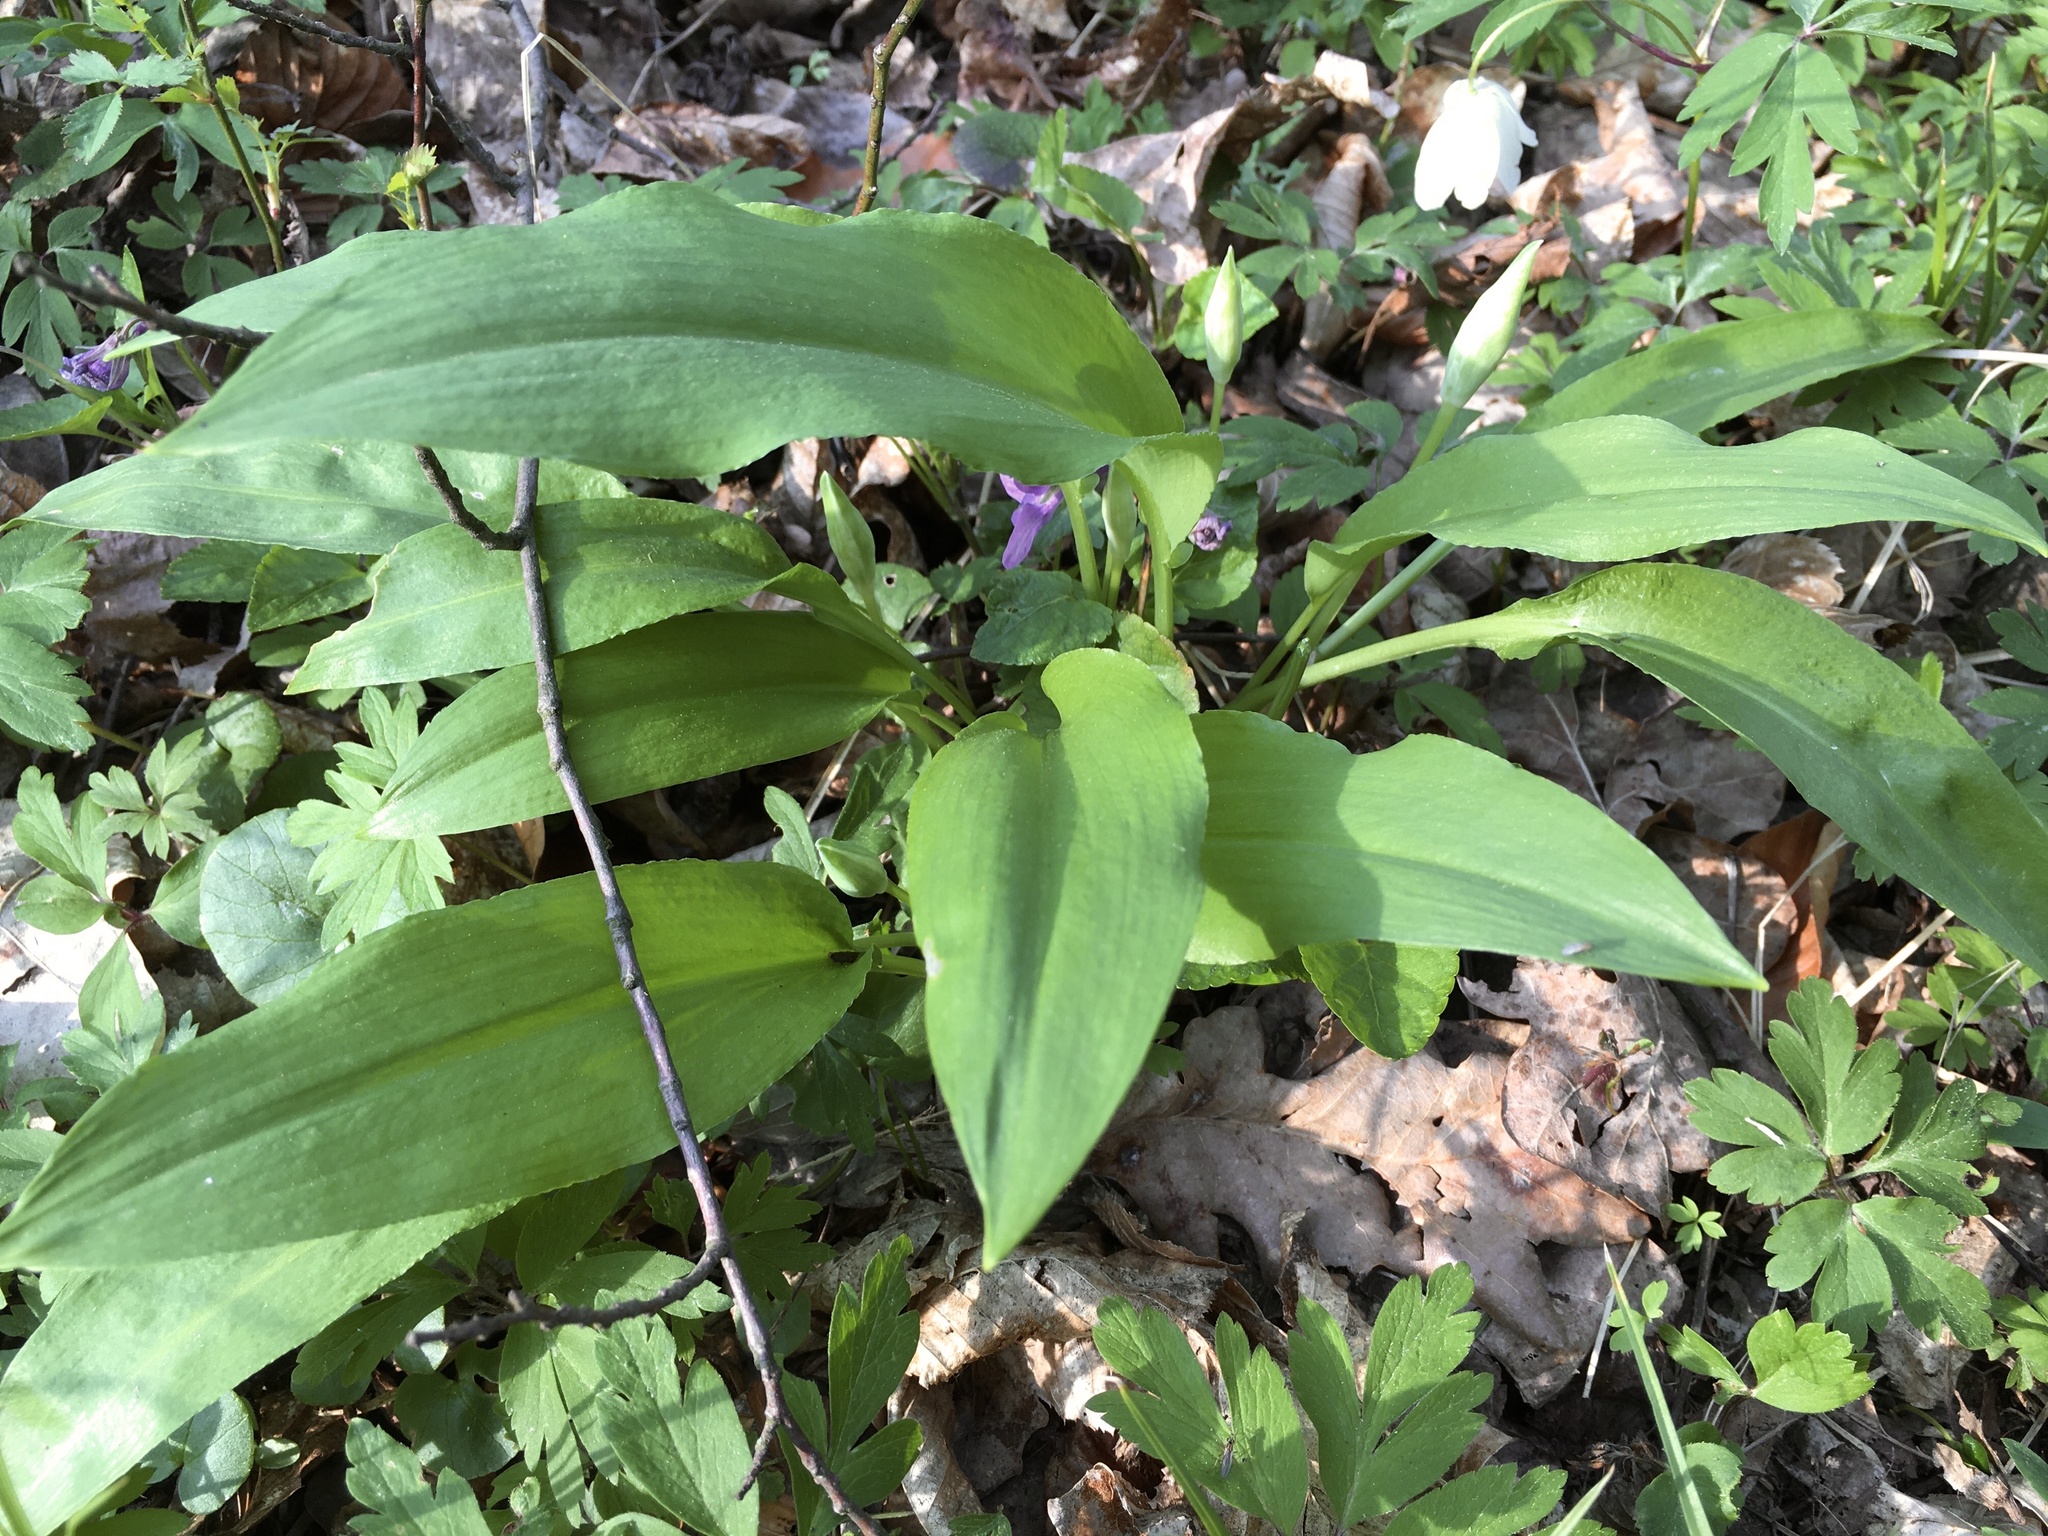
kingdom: Plantae
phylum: Tracheophyta
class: Liliopsida
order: Asparagales
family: Amaryllidaceae
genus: Allium
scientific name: Allium ursinum
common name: Ramsons
